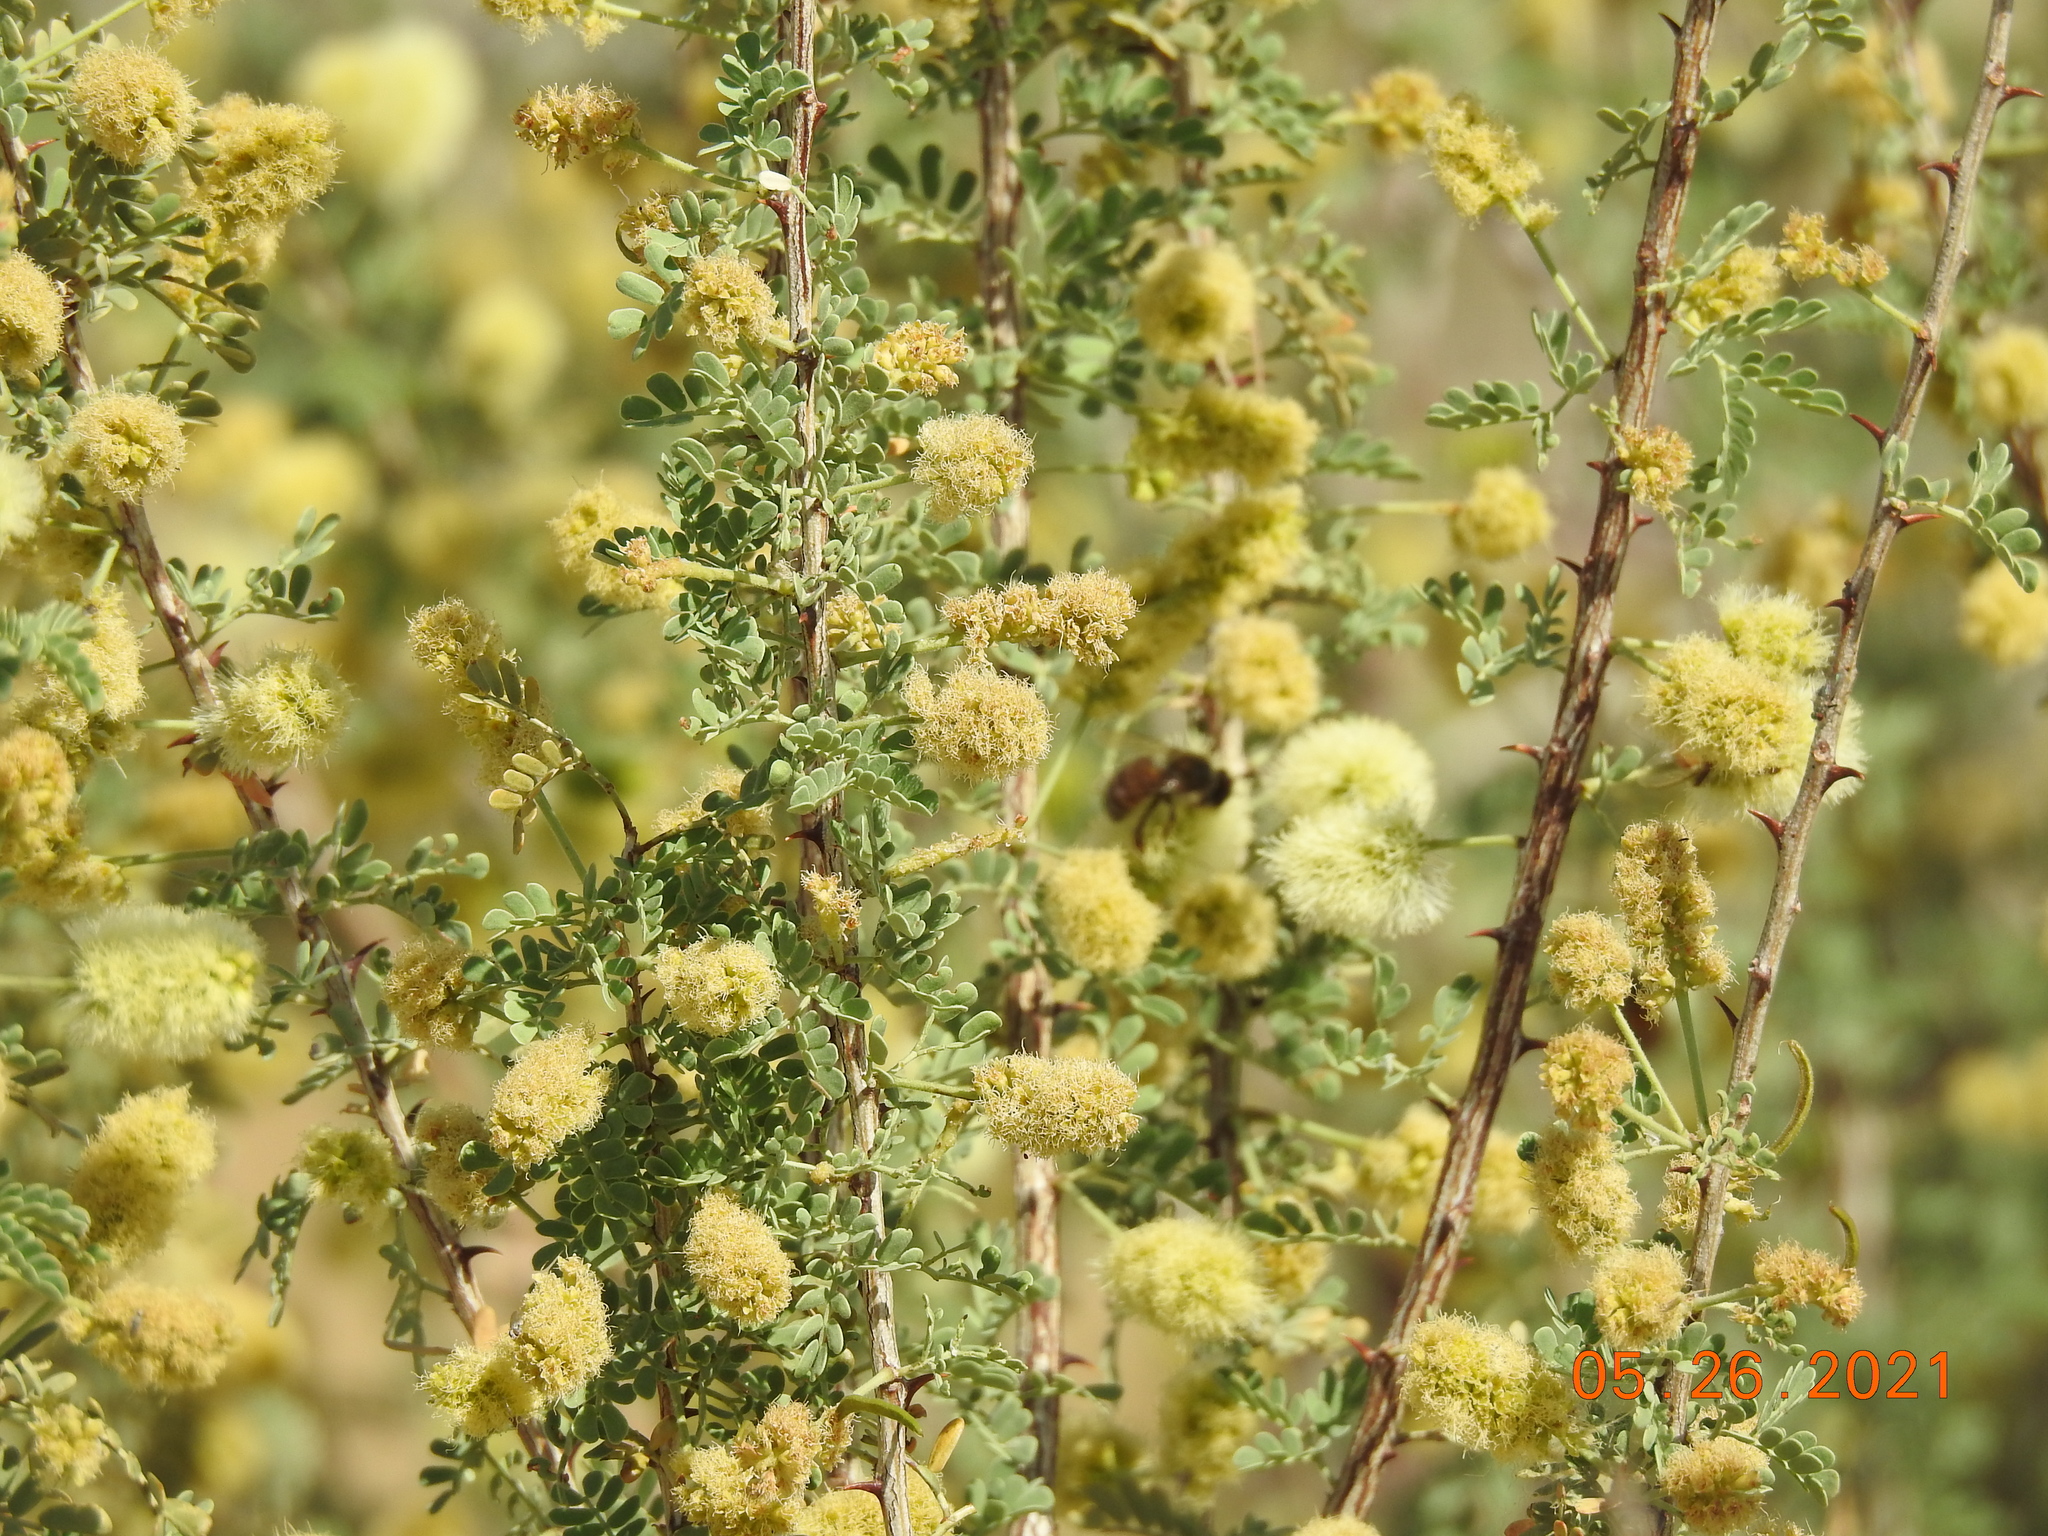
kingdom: Plantae
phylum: Tracheophyta
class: Magnoliopsida
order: Fabales
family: Fabaceae
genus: Senegalia
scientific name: Senegalia greggii
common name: Texas-mimosa
